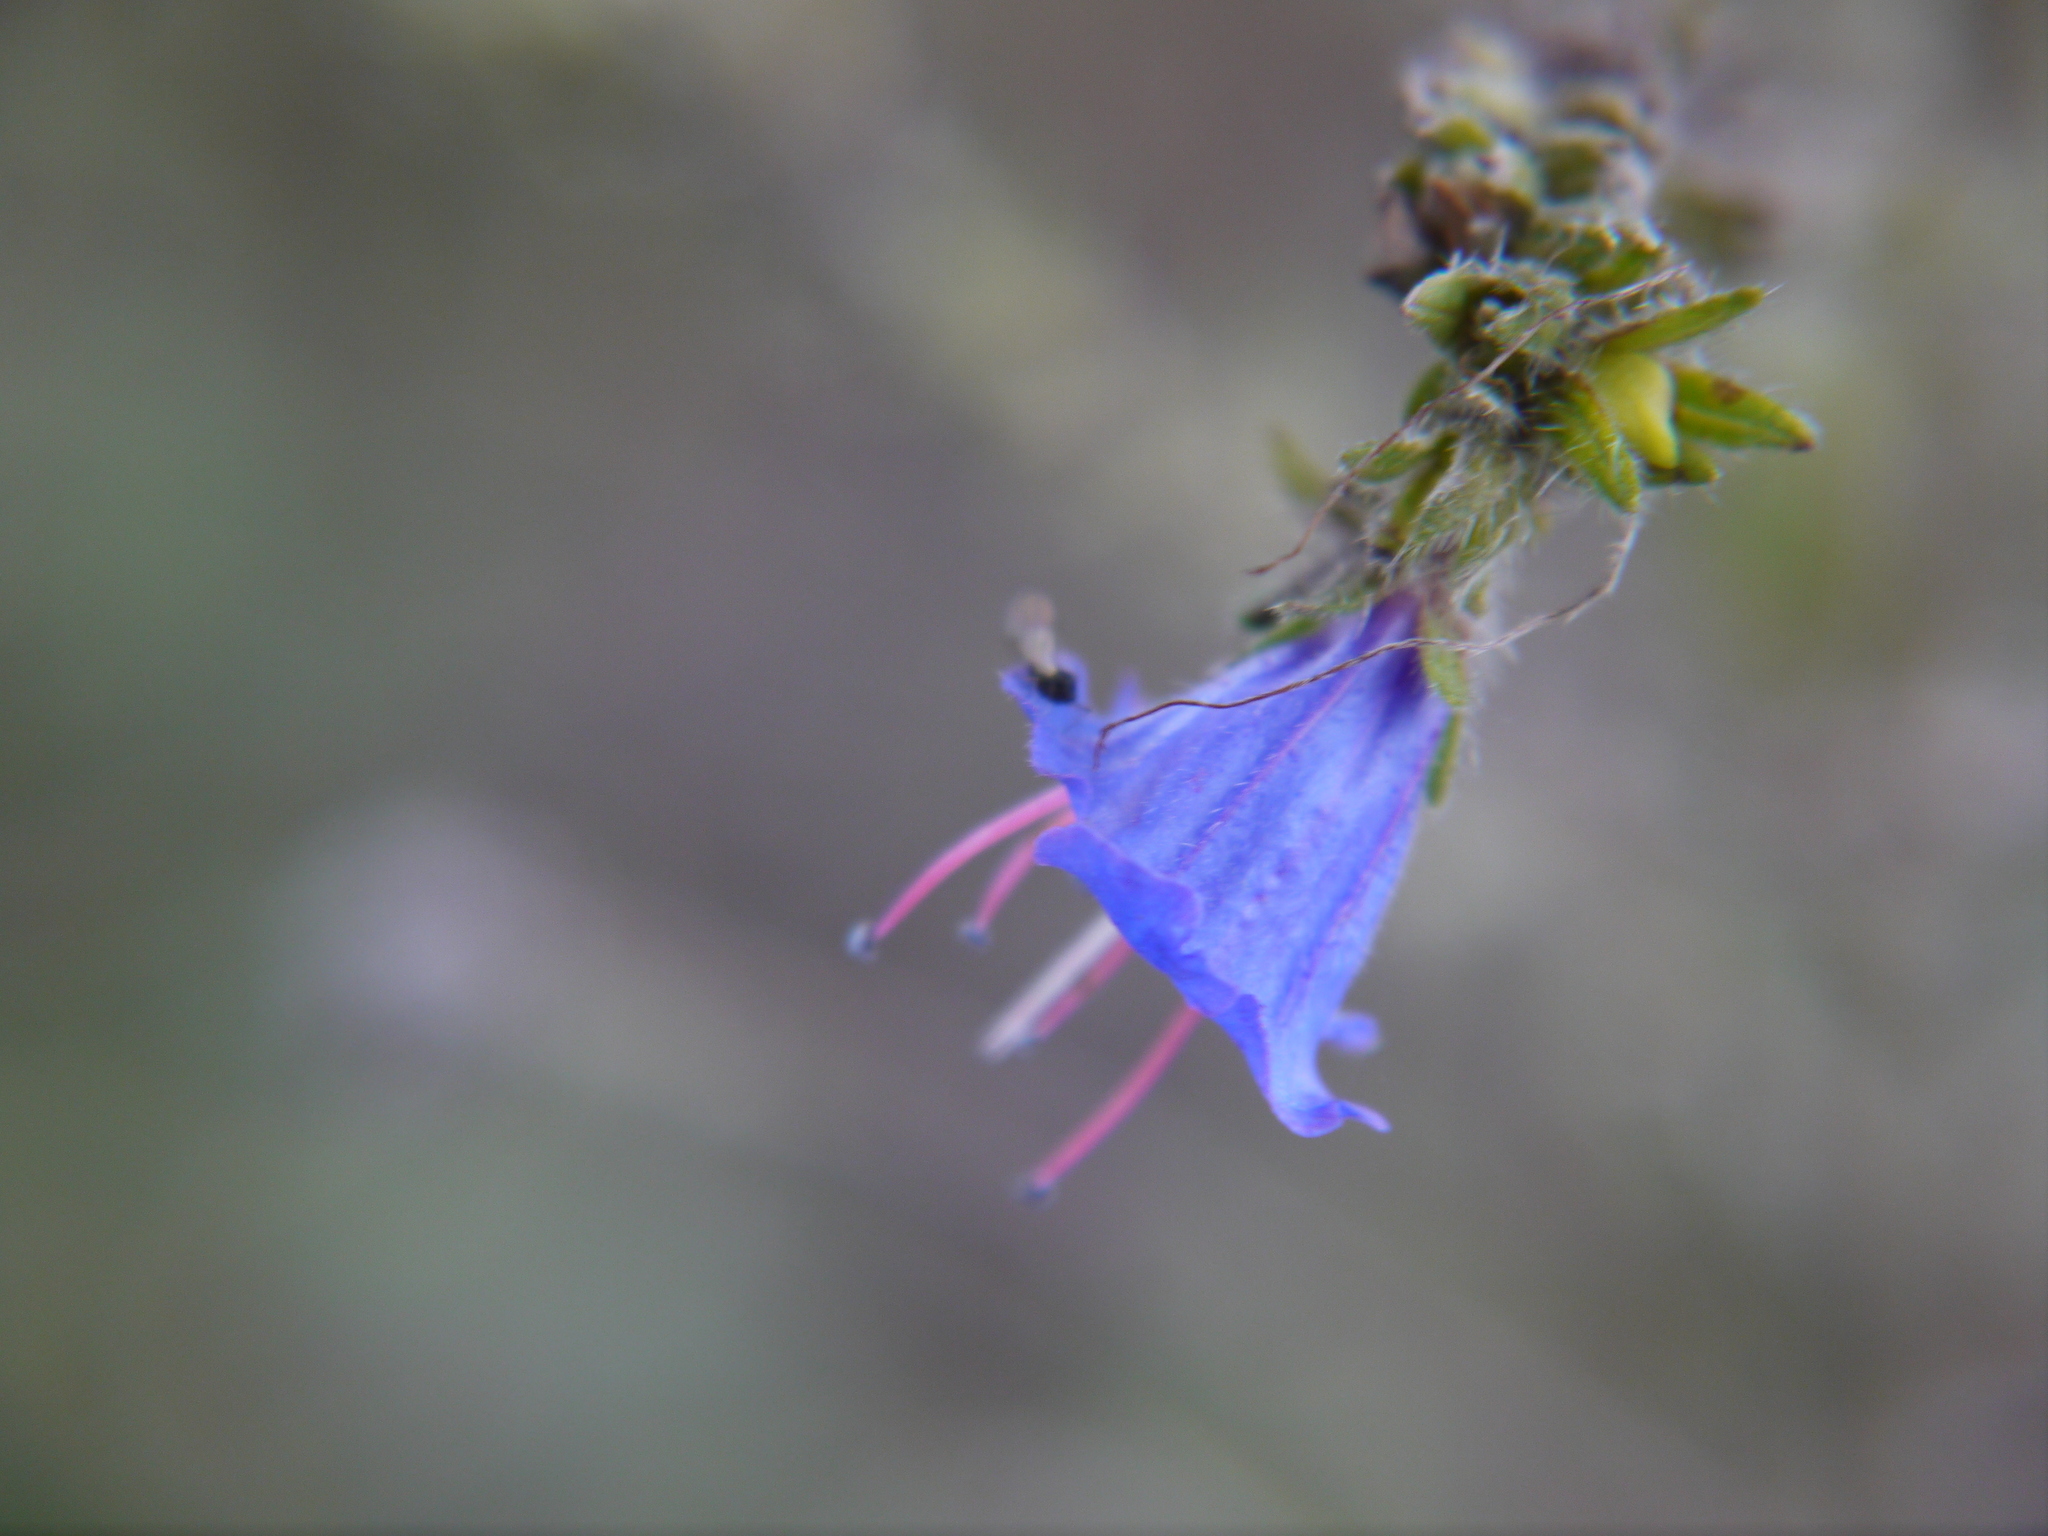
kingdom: Plantae
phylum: Tracheophyta
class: Magnoliopsida
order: Boraginales
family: Boraginaceae
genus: Echium
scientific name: Echium vulgare
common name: Common viper's bugloss
